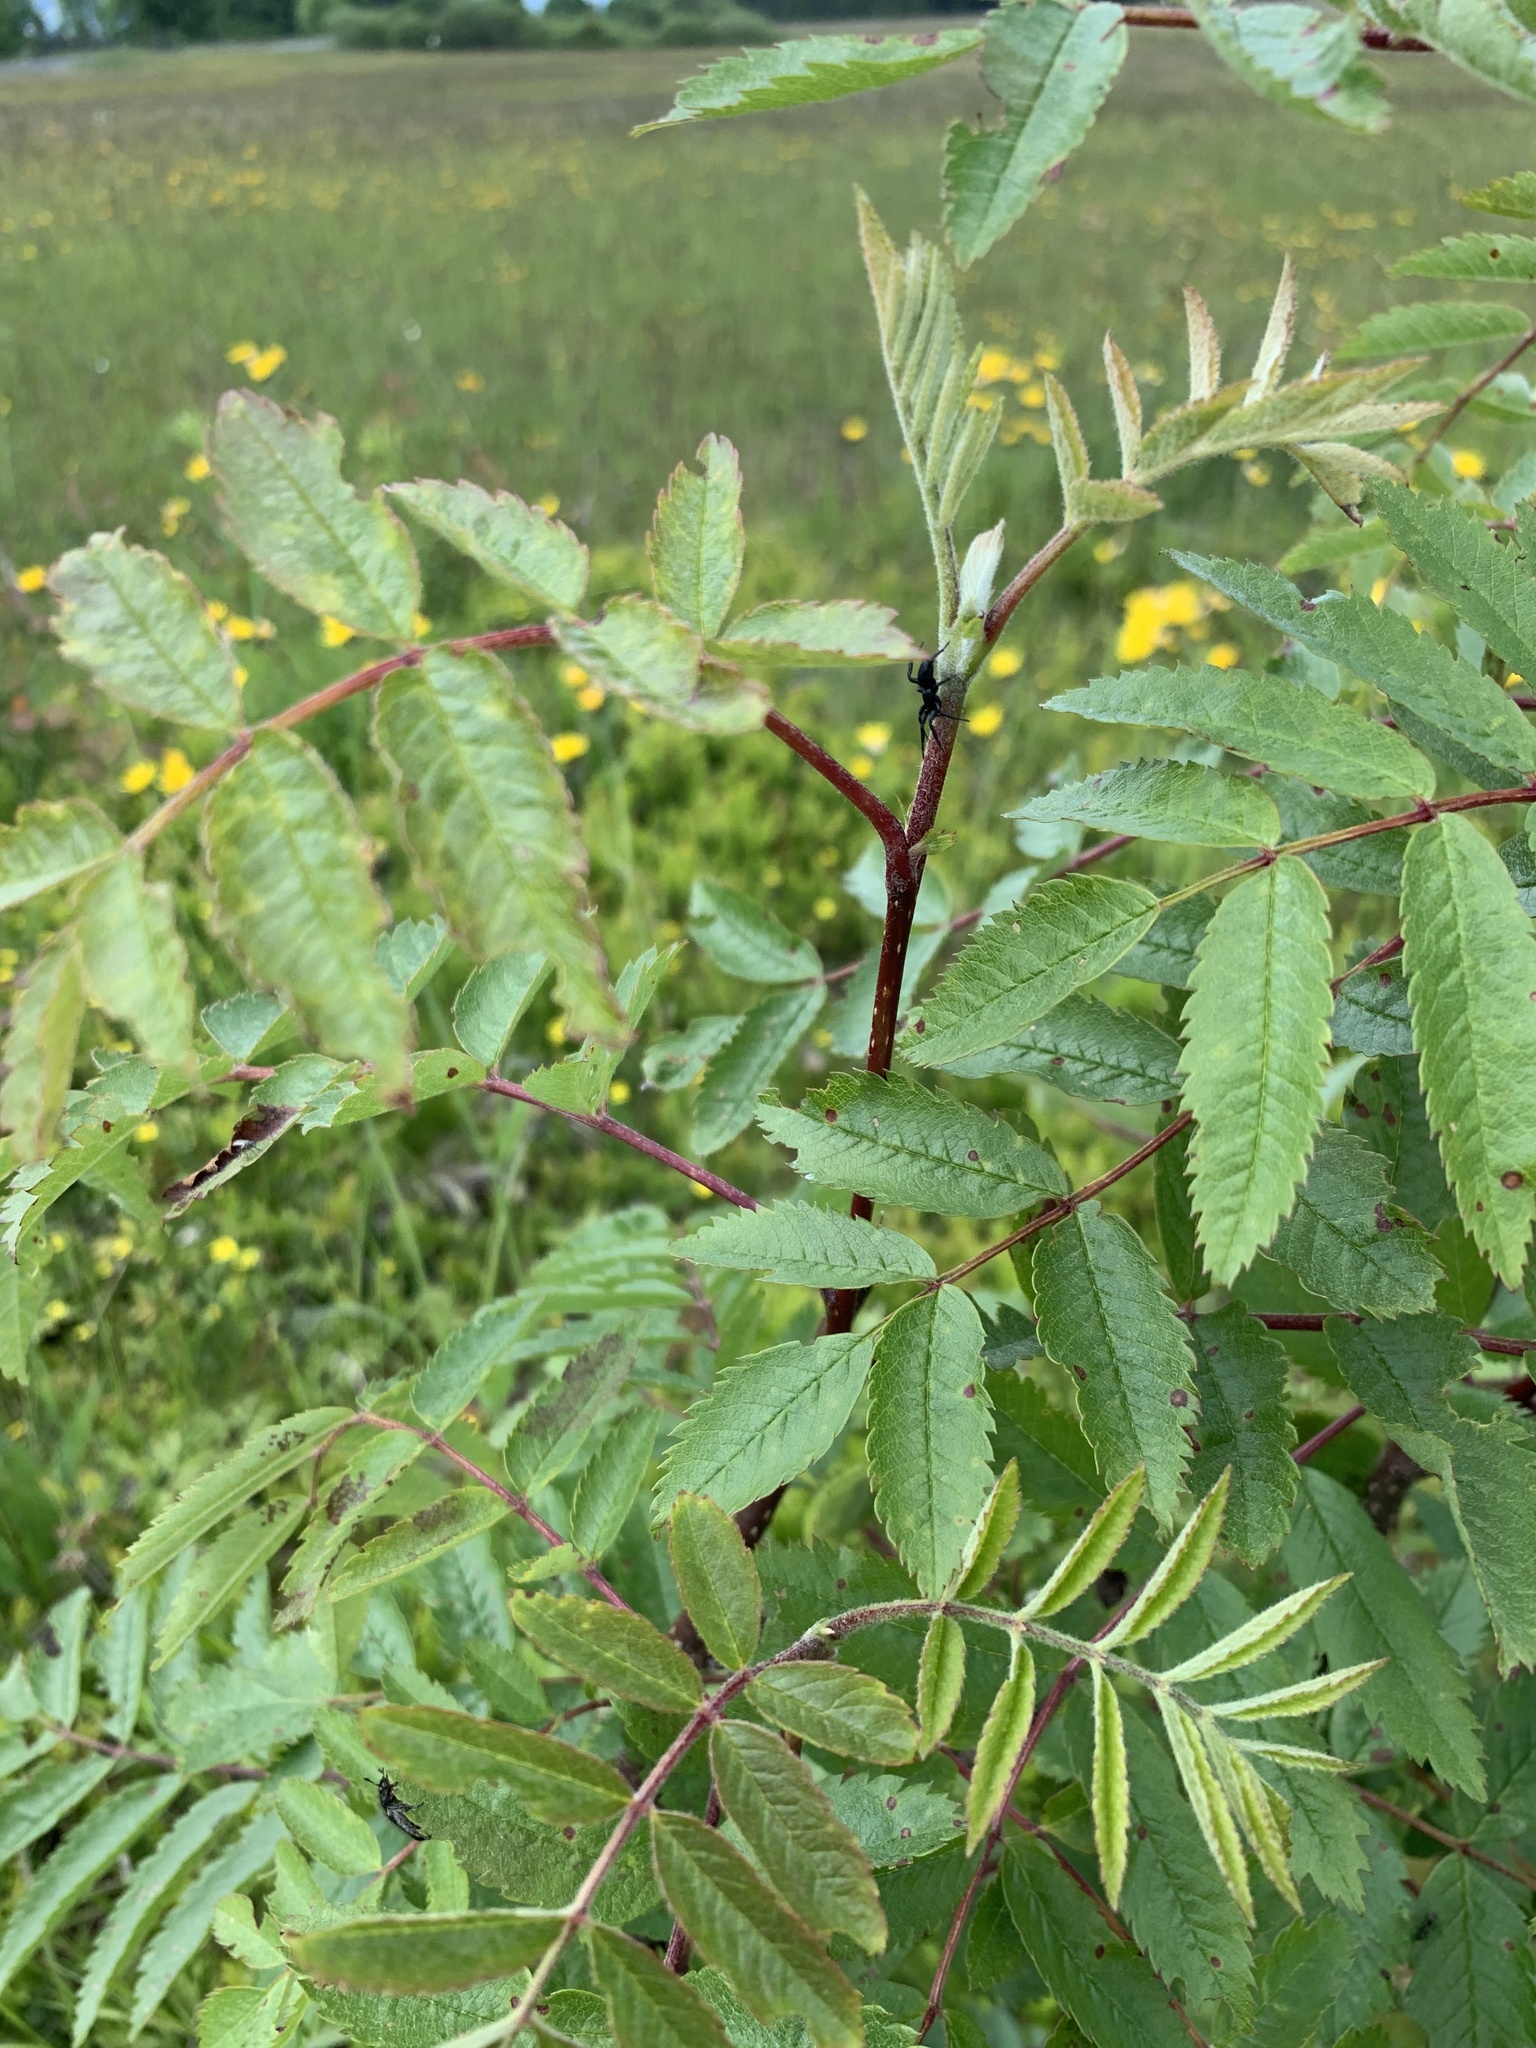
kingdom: Plantae
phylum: Tracheophyta
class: Magnoliopsida
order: Rosales
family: Rosaceae
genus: Sorbus
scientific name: Sorbus aucuparia
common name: Rowan
